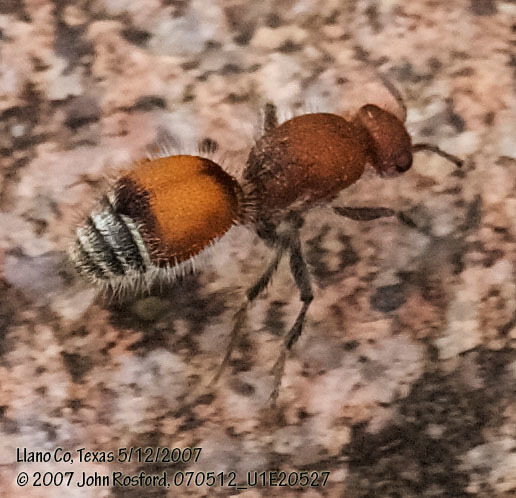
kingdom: Animalia
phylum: Arthropoda
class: Insecta
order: Hymenoptera
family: Mutillidae
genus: Dasymutilla
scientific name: Dasymutilla
